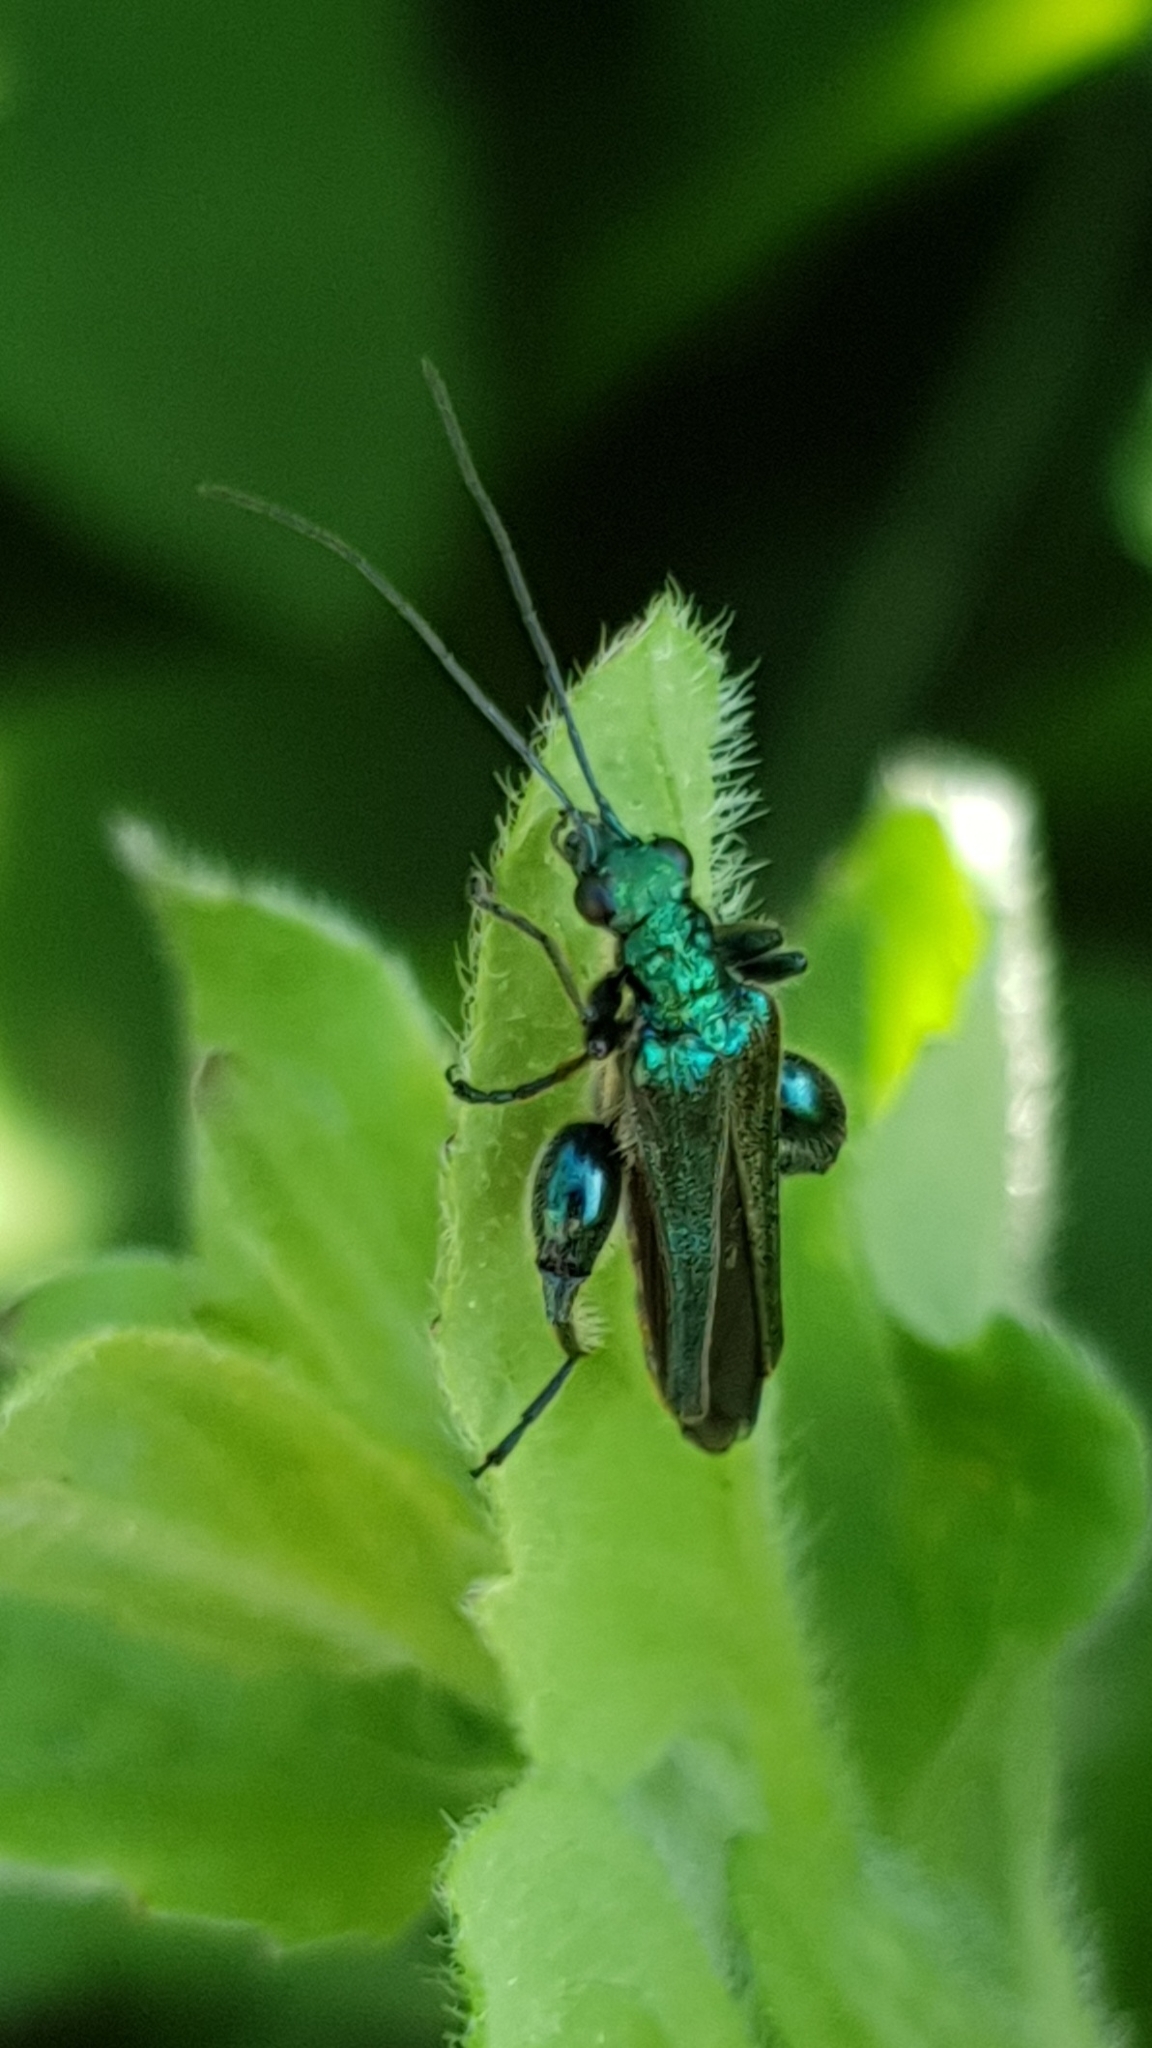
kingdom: Animalia
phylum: Arthropoda
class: Insecta
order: Coleoptera
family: Oedemeridae
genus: Oedemera
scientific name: Oedemera nobilis
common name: Swollen-thighed beetle
